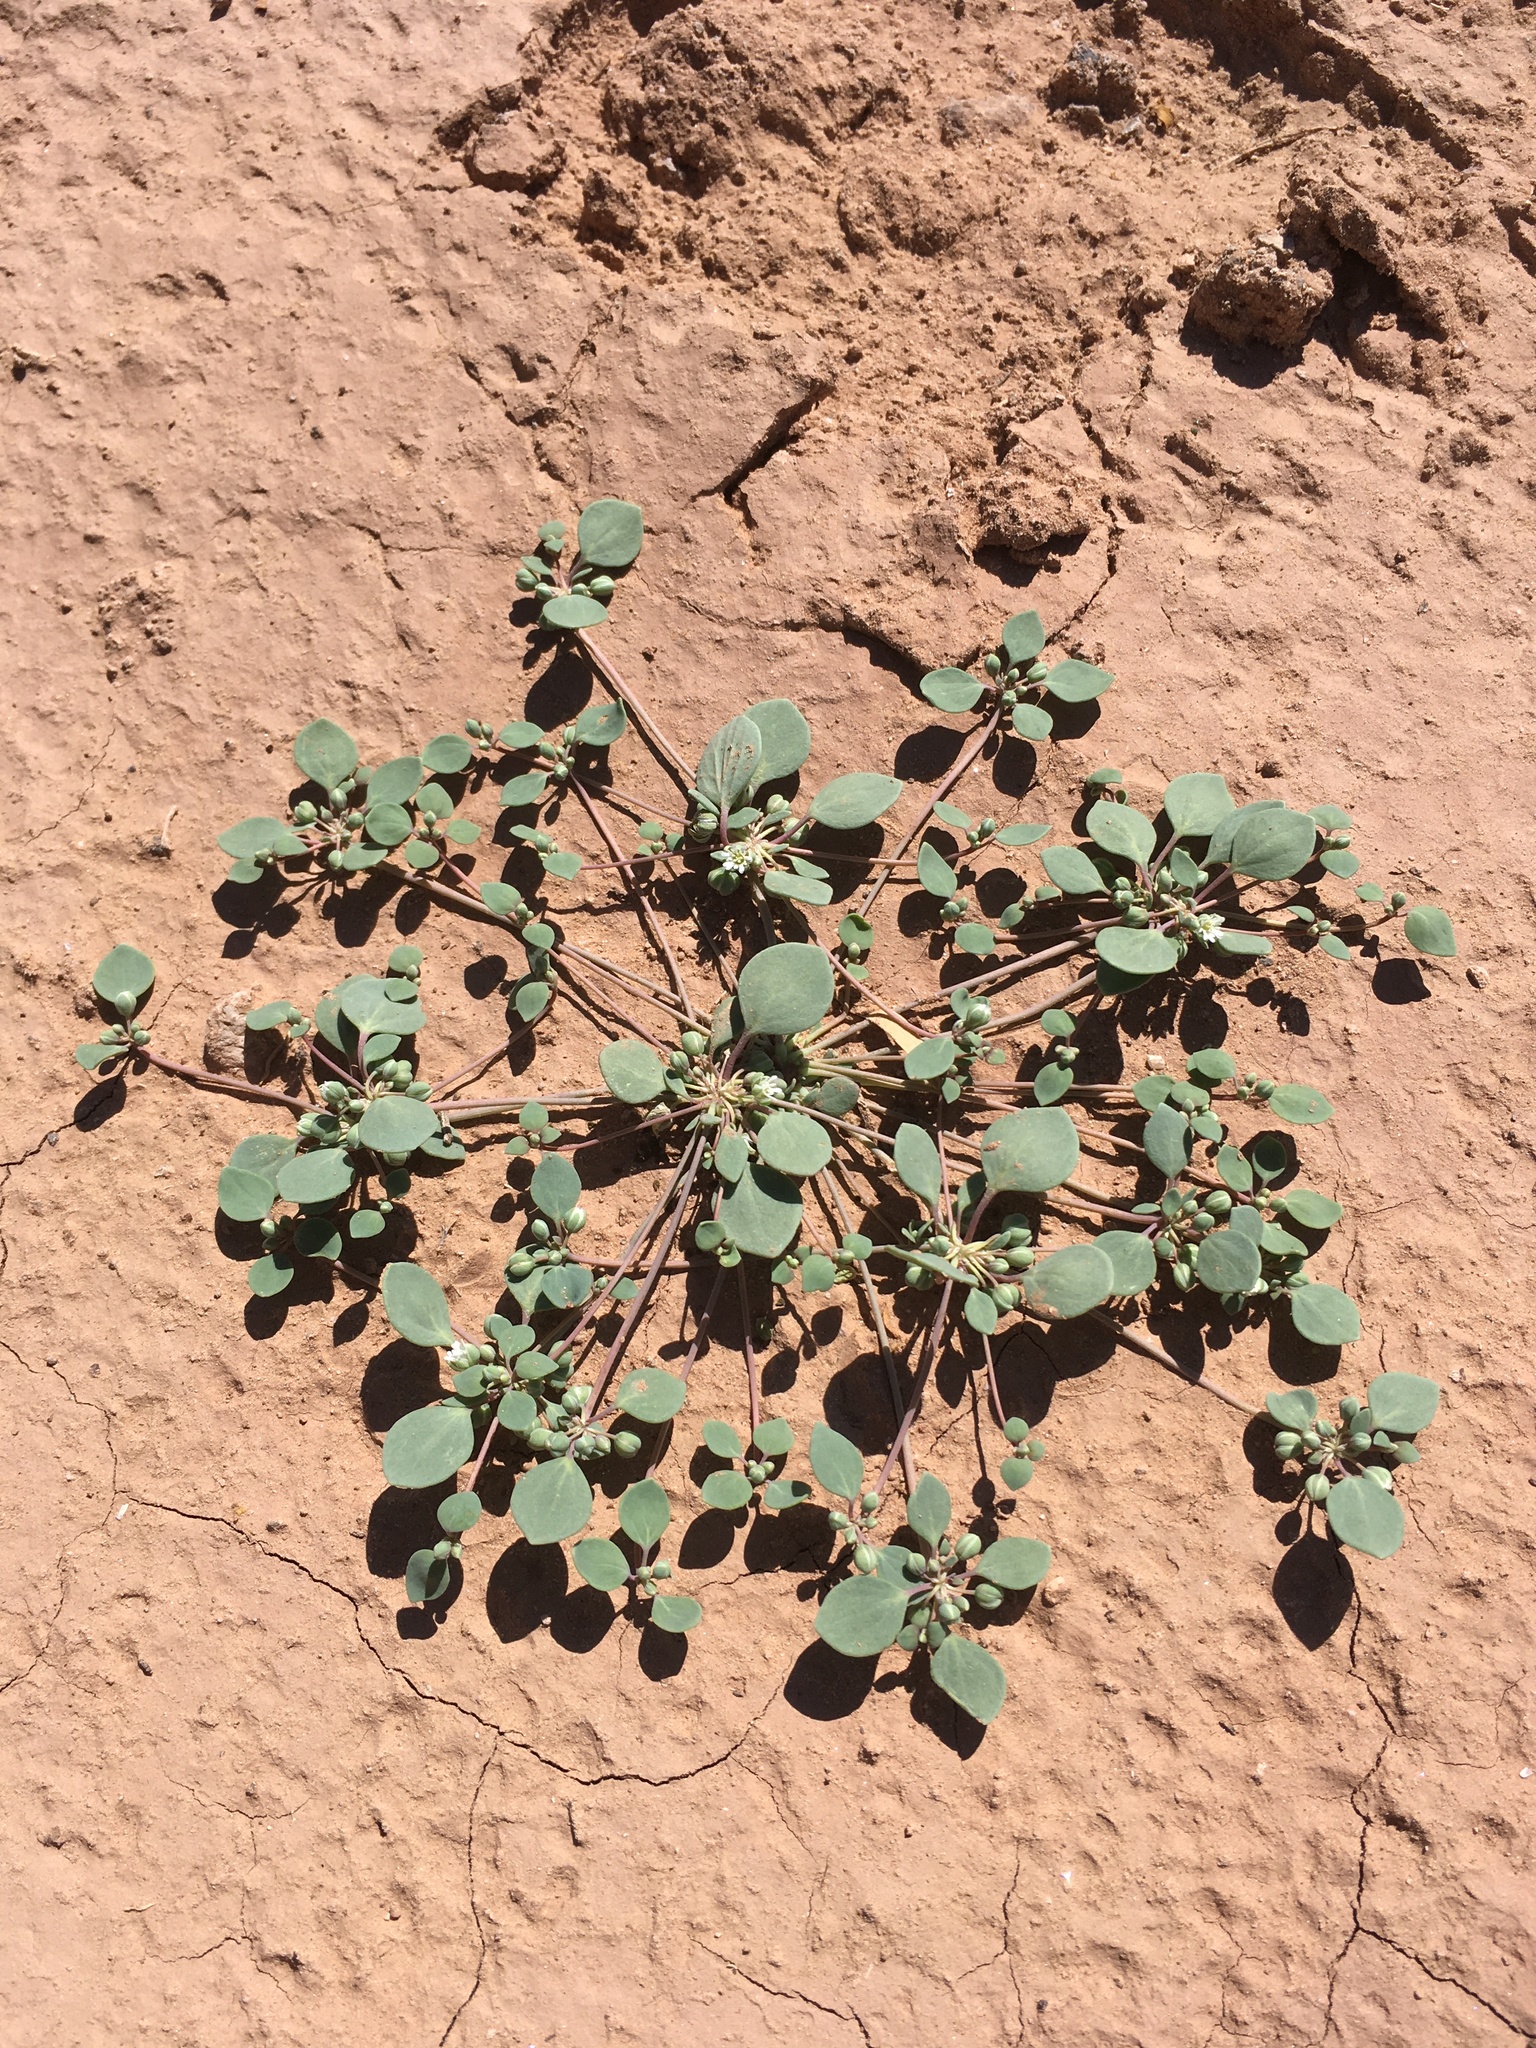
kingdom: Plantae
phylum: Tracheophyta
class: Magnoliopsida
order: Caryophyllales
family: Caryophyllaceae
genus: Drymaria
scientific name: Drymaria pachyphylla
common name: Inkweed
